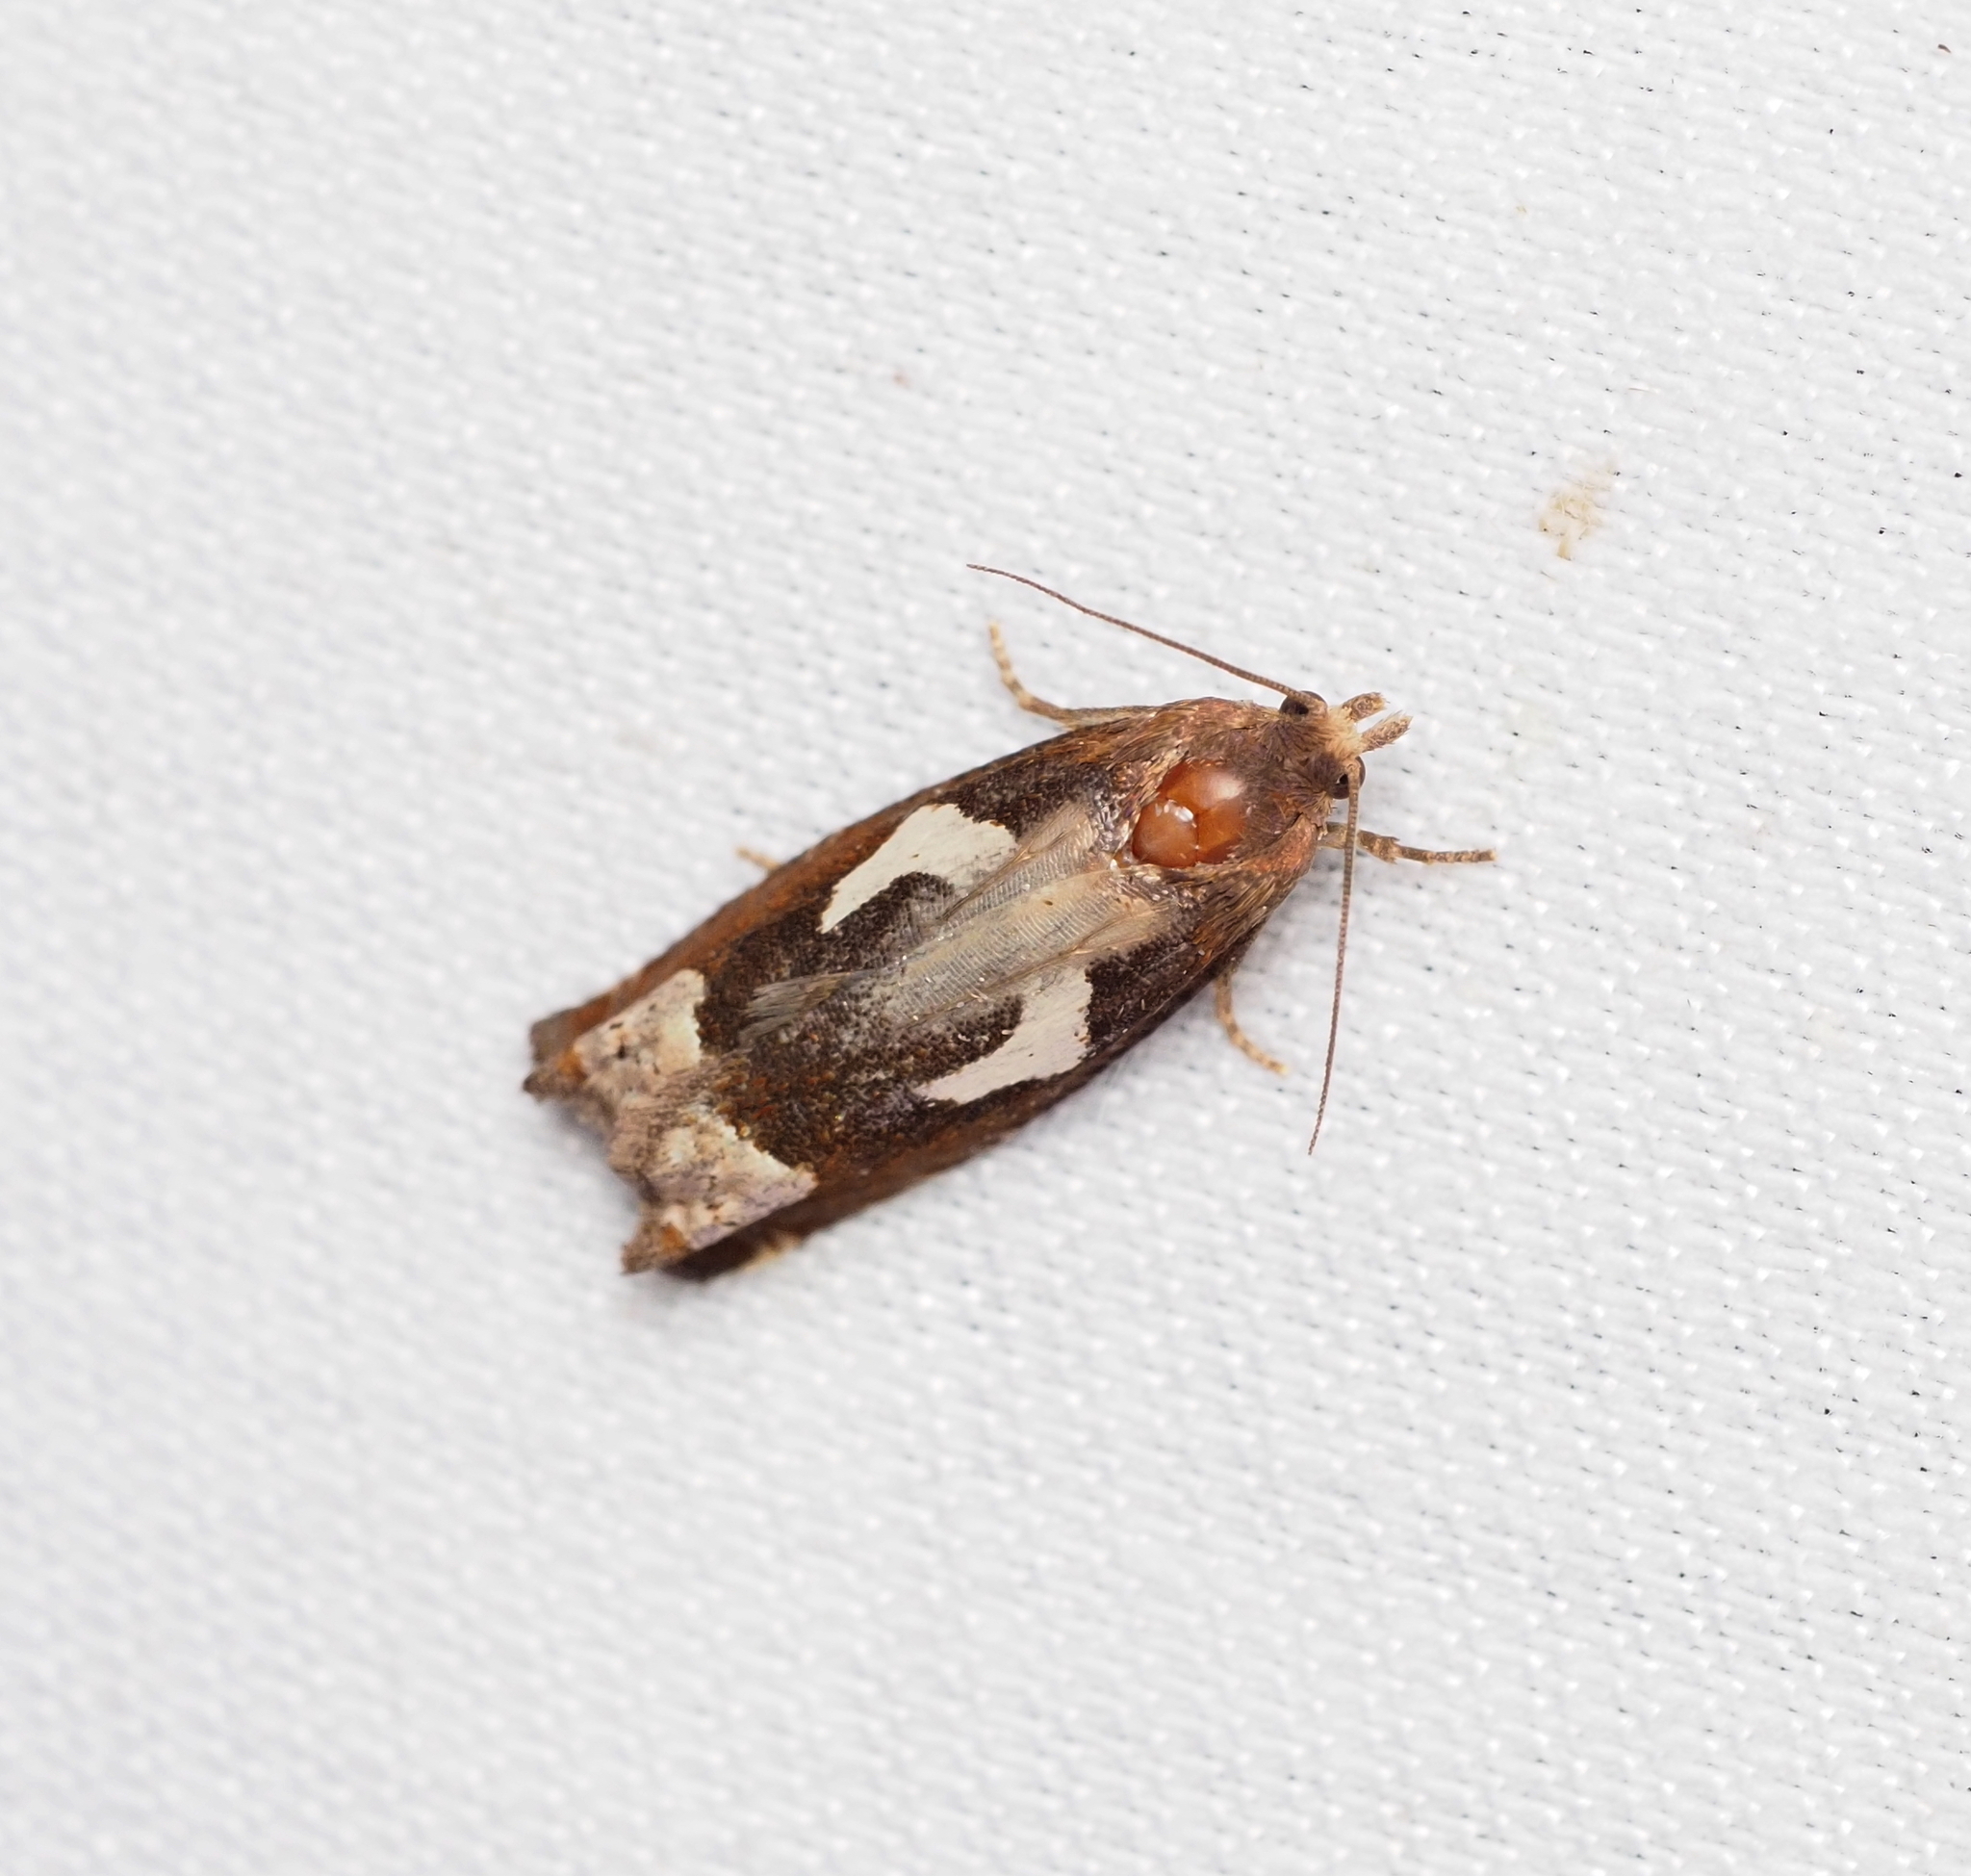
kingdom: Animalia
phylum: Arthropoda
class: Insecta
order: Lepidoptera
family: Tortricidae
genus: Epiblema
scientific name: Epiblema foenella
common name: White-foot bell
